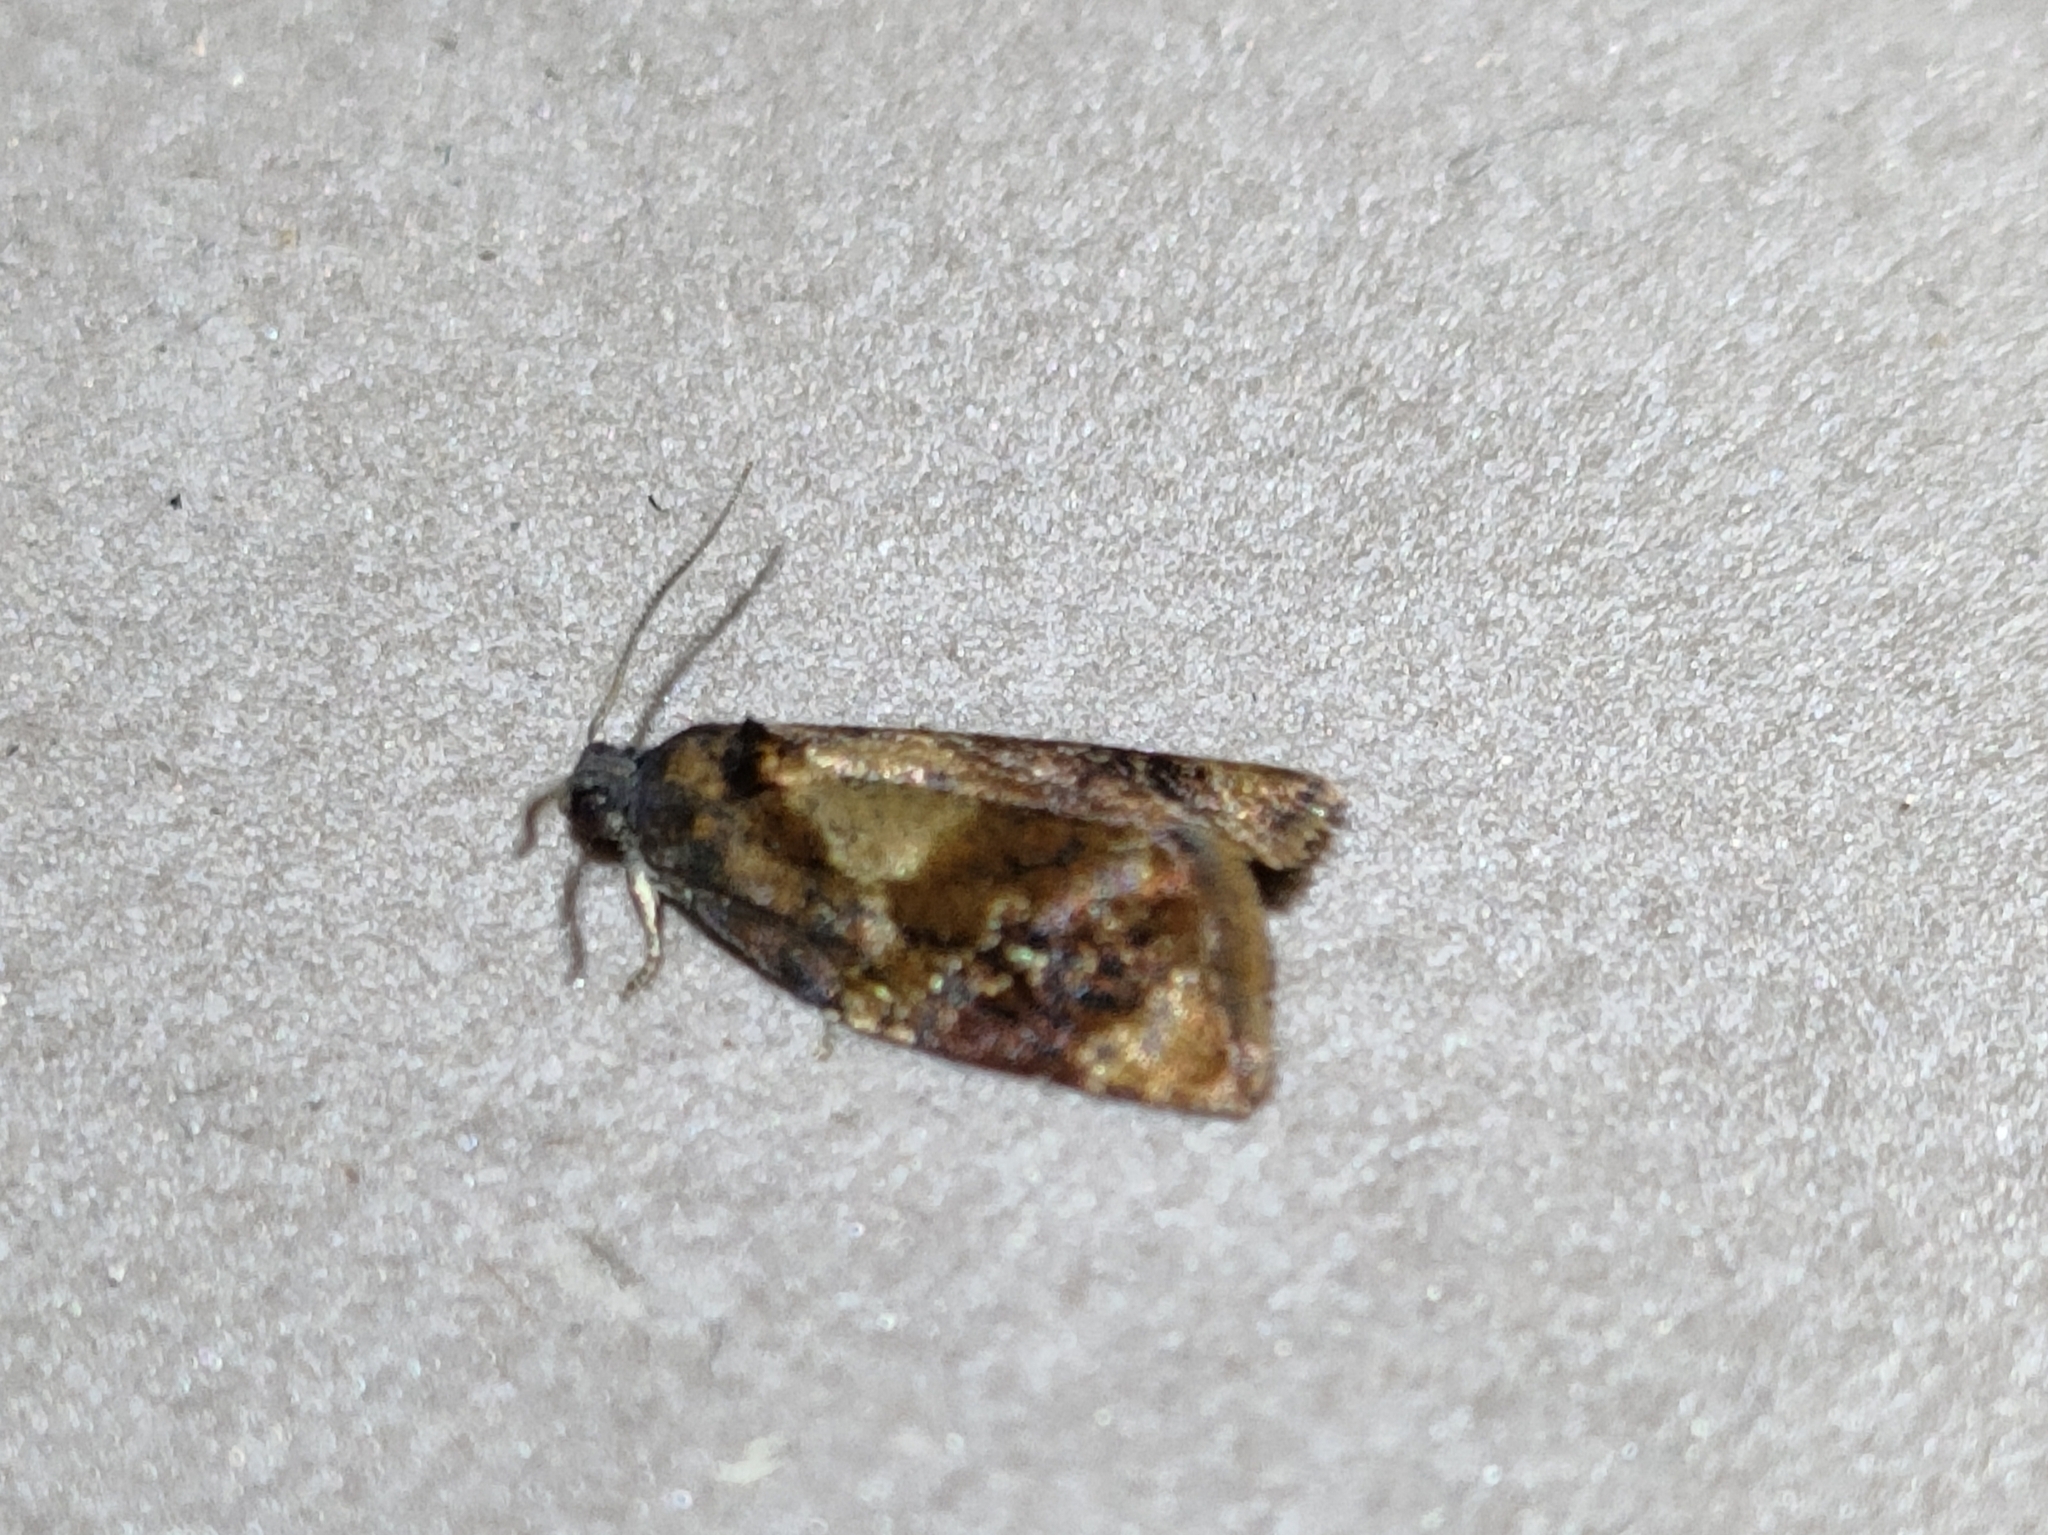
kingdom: Animalia
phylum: Arthropoda
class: Insecta
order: Lepidoptera
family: Tortricidae
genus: Ditula
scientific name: Ditula angustiorana
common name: Red-barred tortrix
